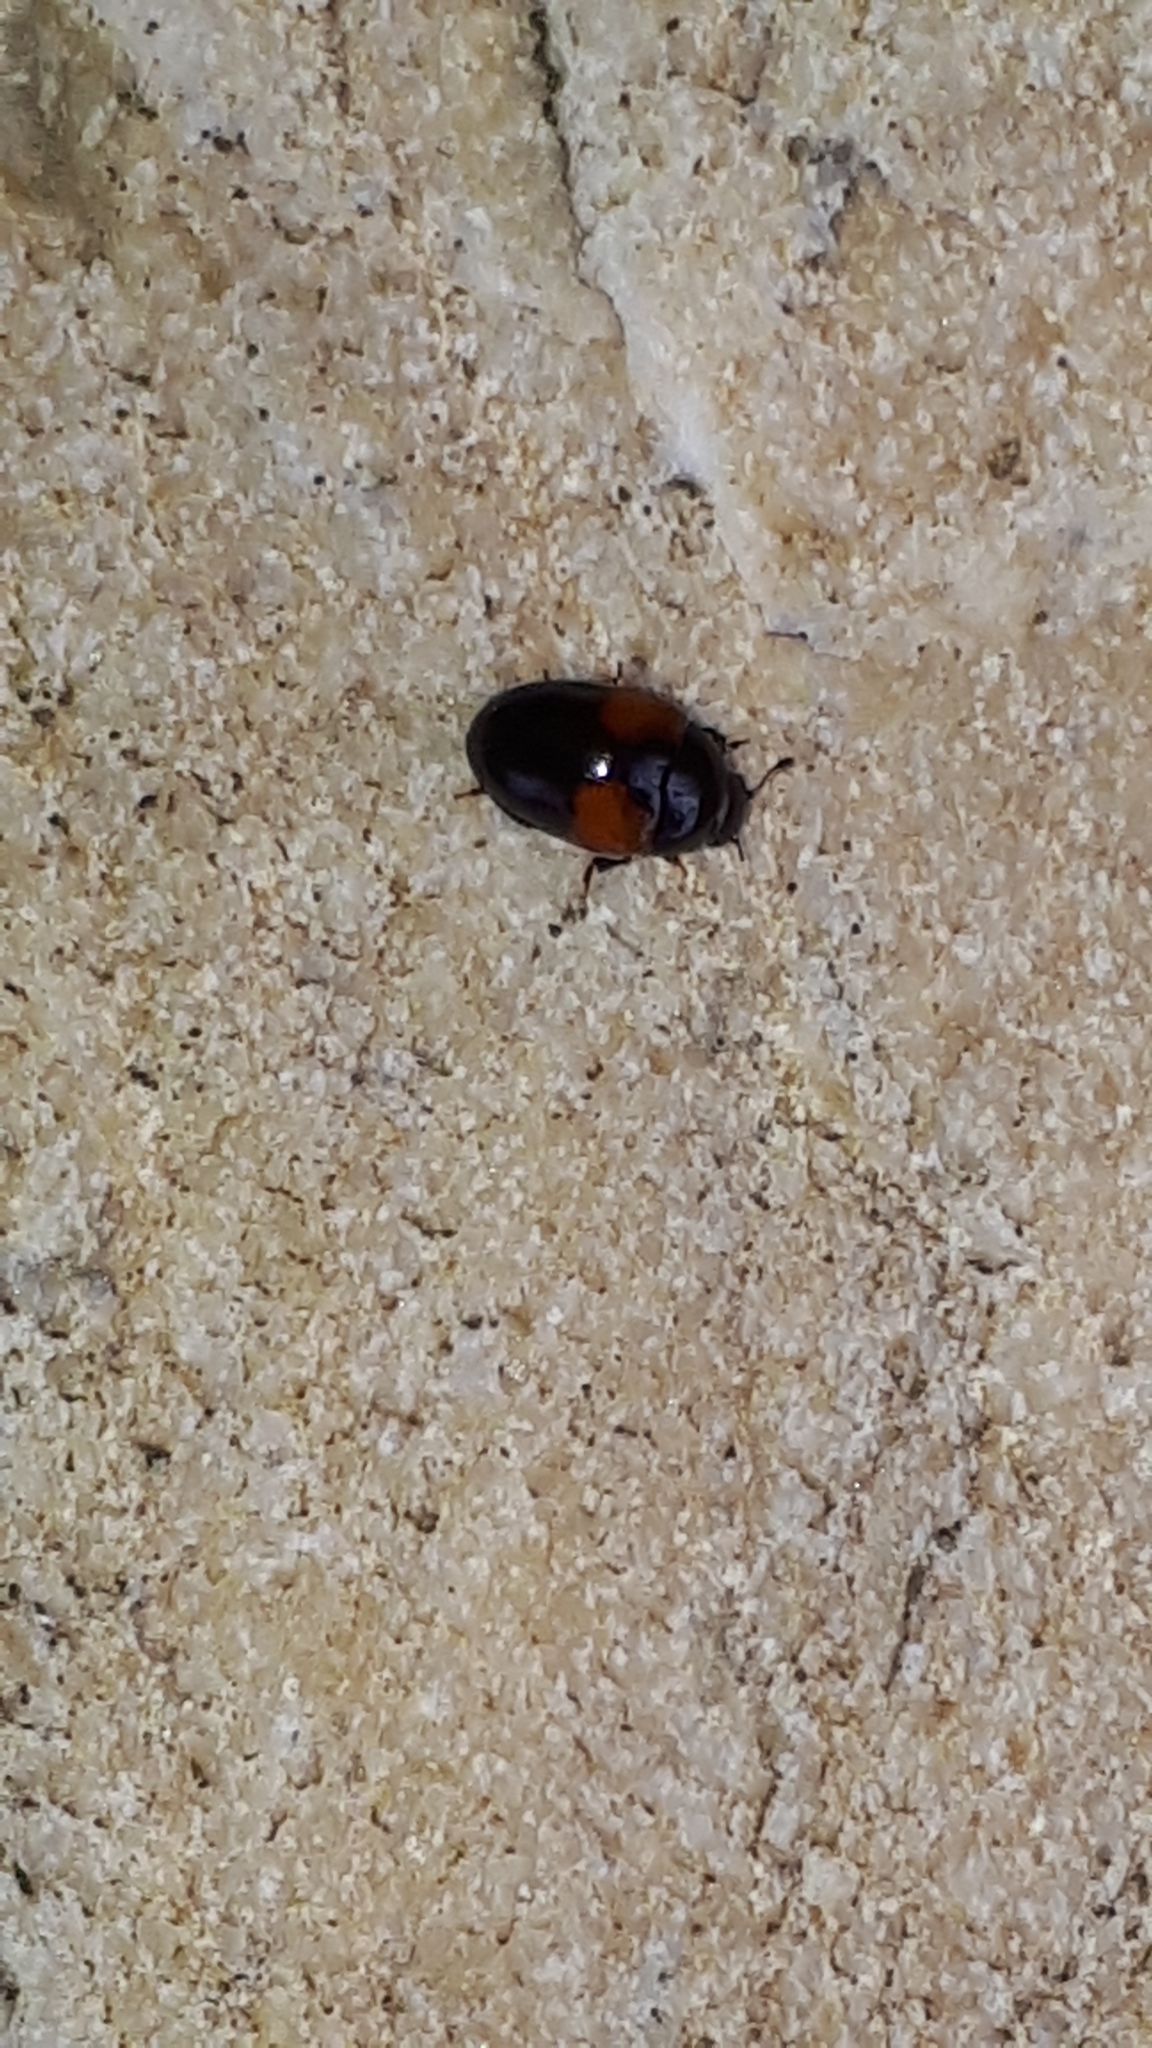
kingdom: Animalia
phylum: Arthropoda
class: Insecta
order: Coleoptera
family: Erotylidae
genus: Tritoma
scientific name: Tritoma bipustulata
